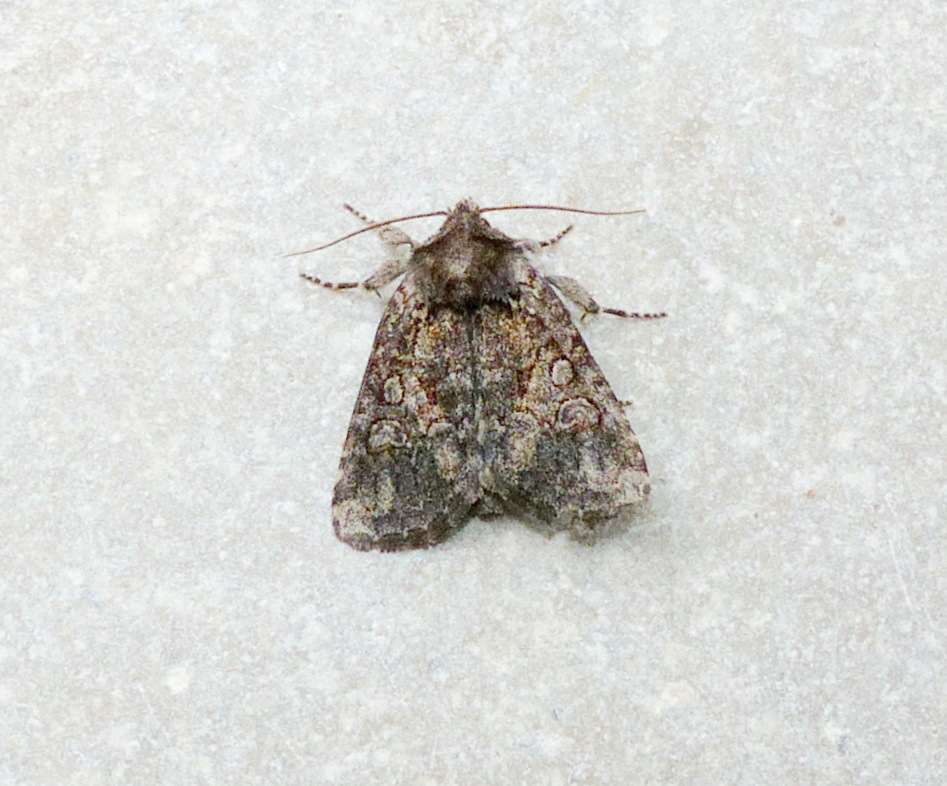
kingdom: Animalia
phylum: Arthropoda
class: Insecta
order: Lepidoptera
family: Noctuidae
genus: Orthodes
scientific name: Orthodes detracta
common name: Disparaged arches moth
